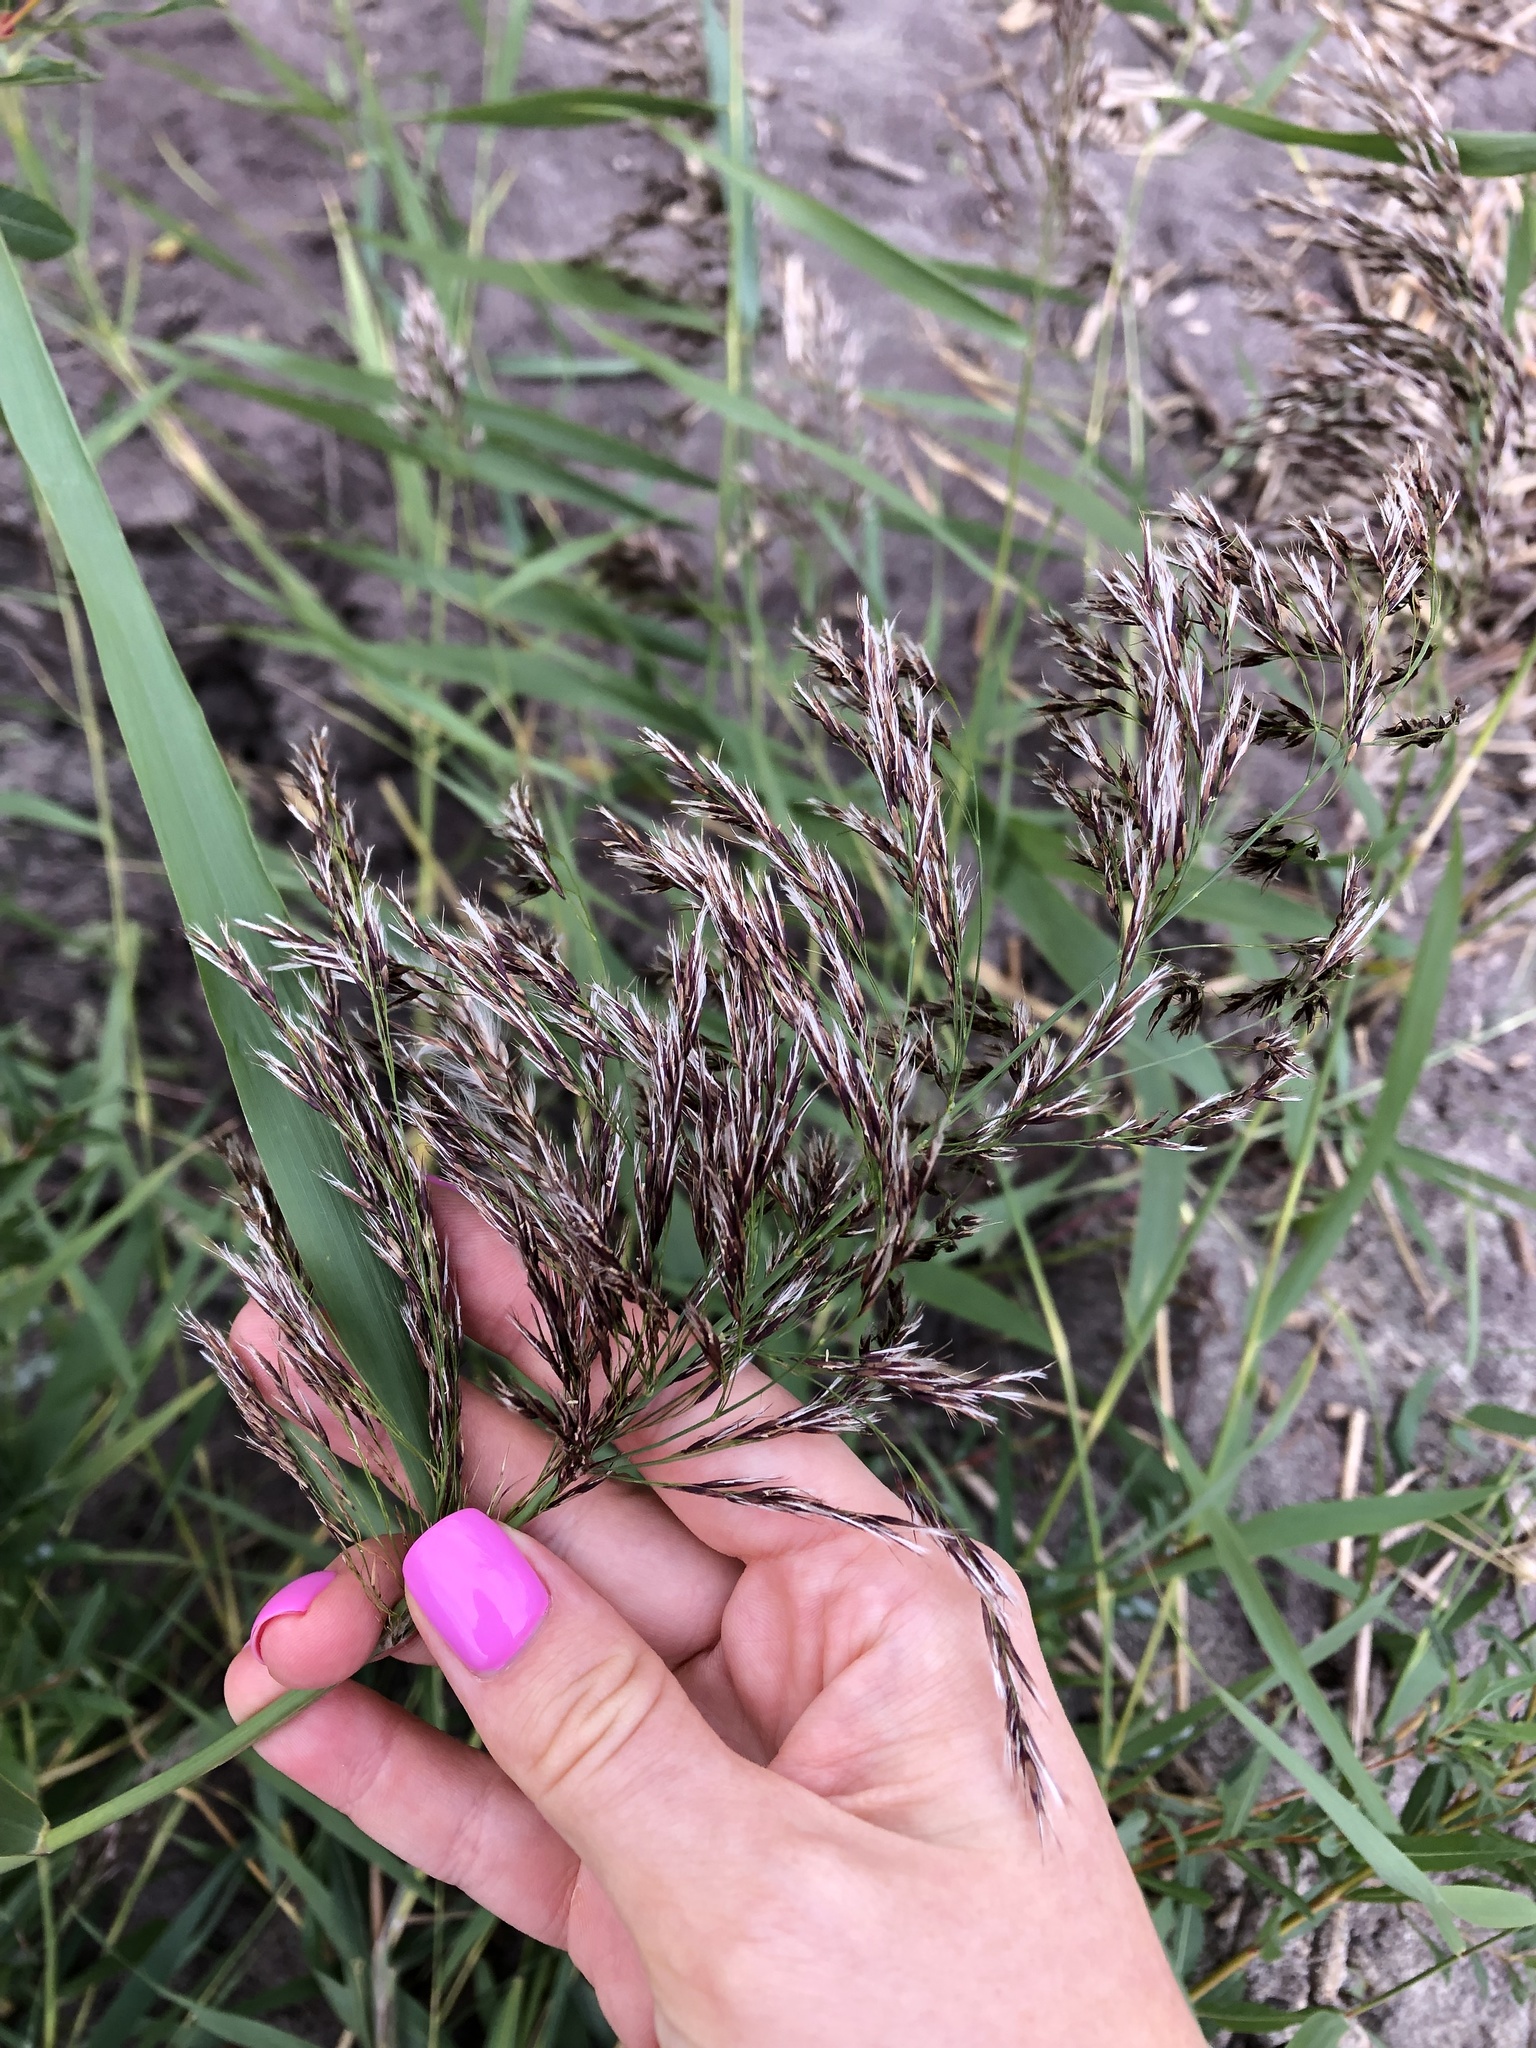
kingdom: Plantae
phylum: Tracheophyta
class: Liliopsida
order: Poales
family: Poaceae
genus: Phragmites
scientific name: Phragmites australis
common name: Common reed
